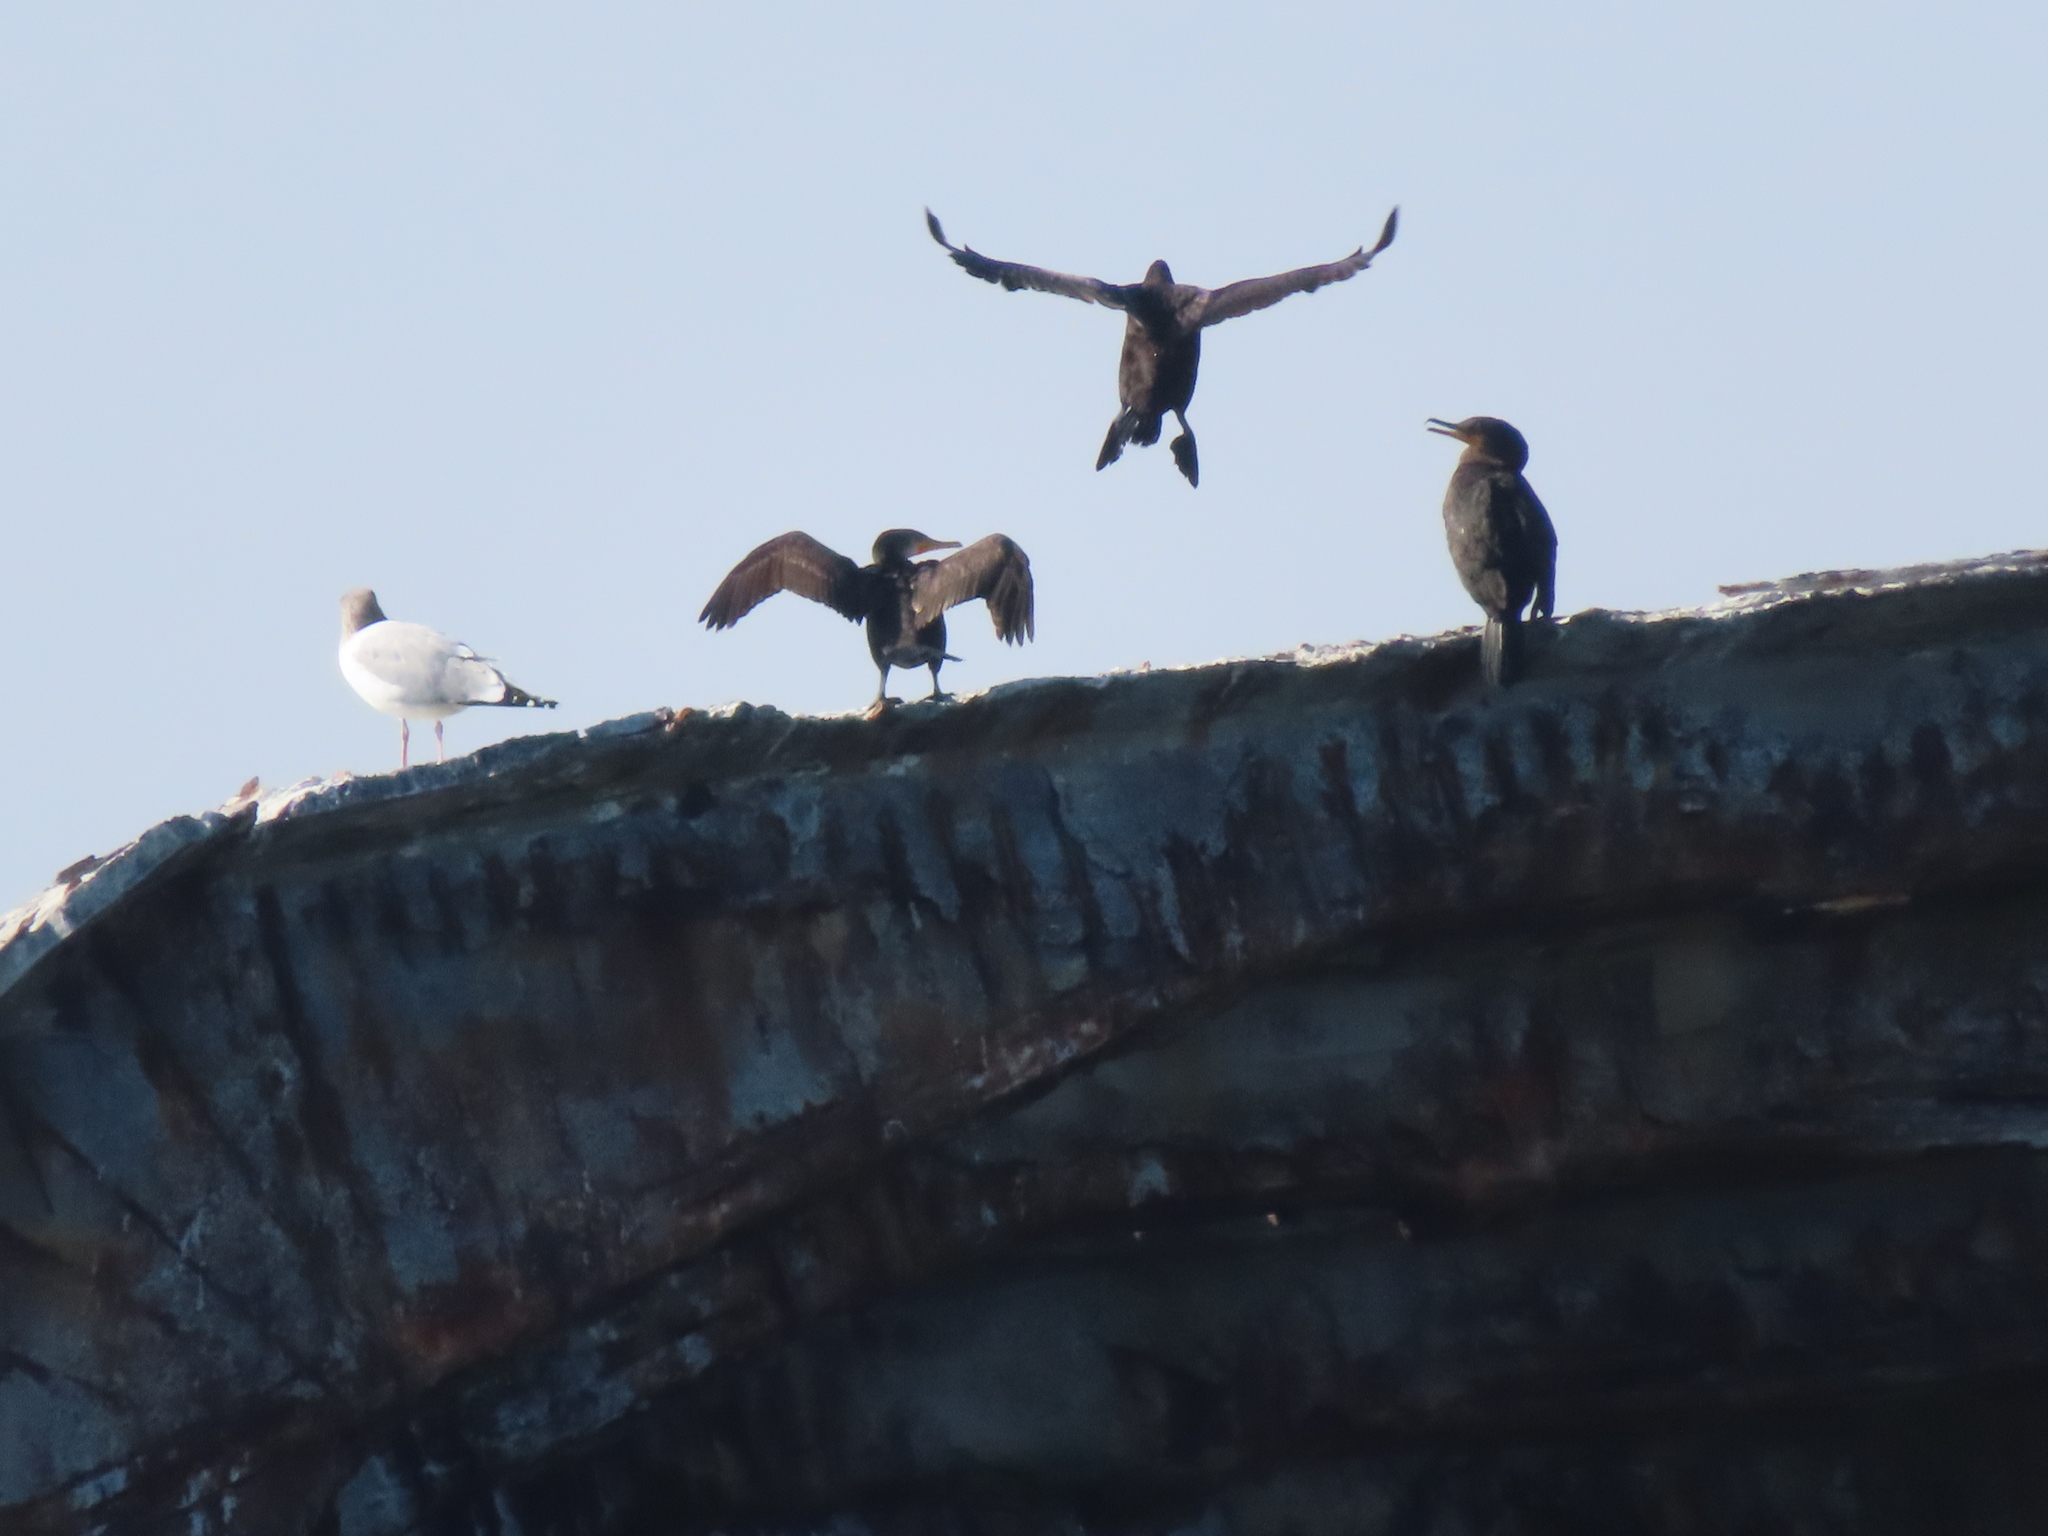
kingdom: Animalia
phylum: Chordata
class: Aves
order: Charadriiformes
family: Laridae
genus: Larus
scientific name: Larus argentatus
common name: Herring gull
